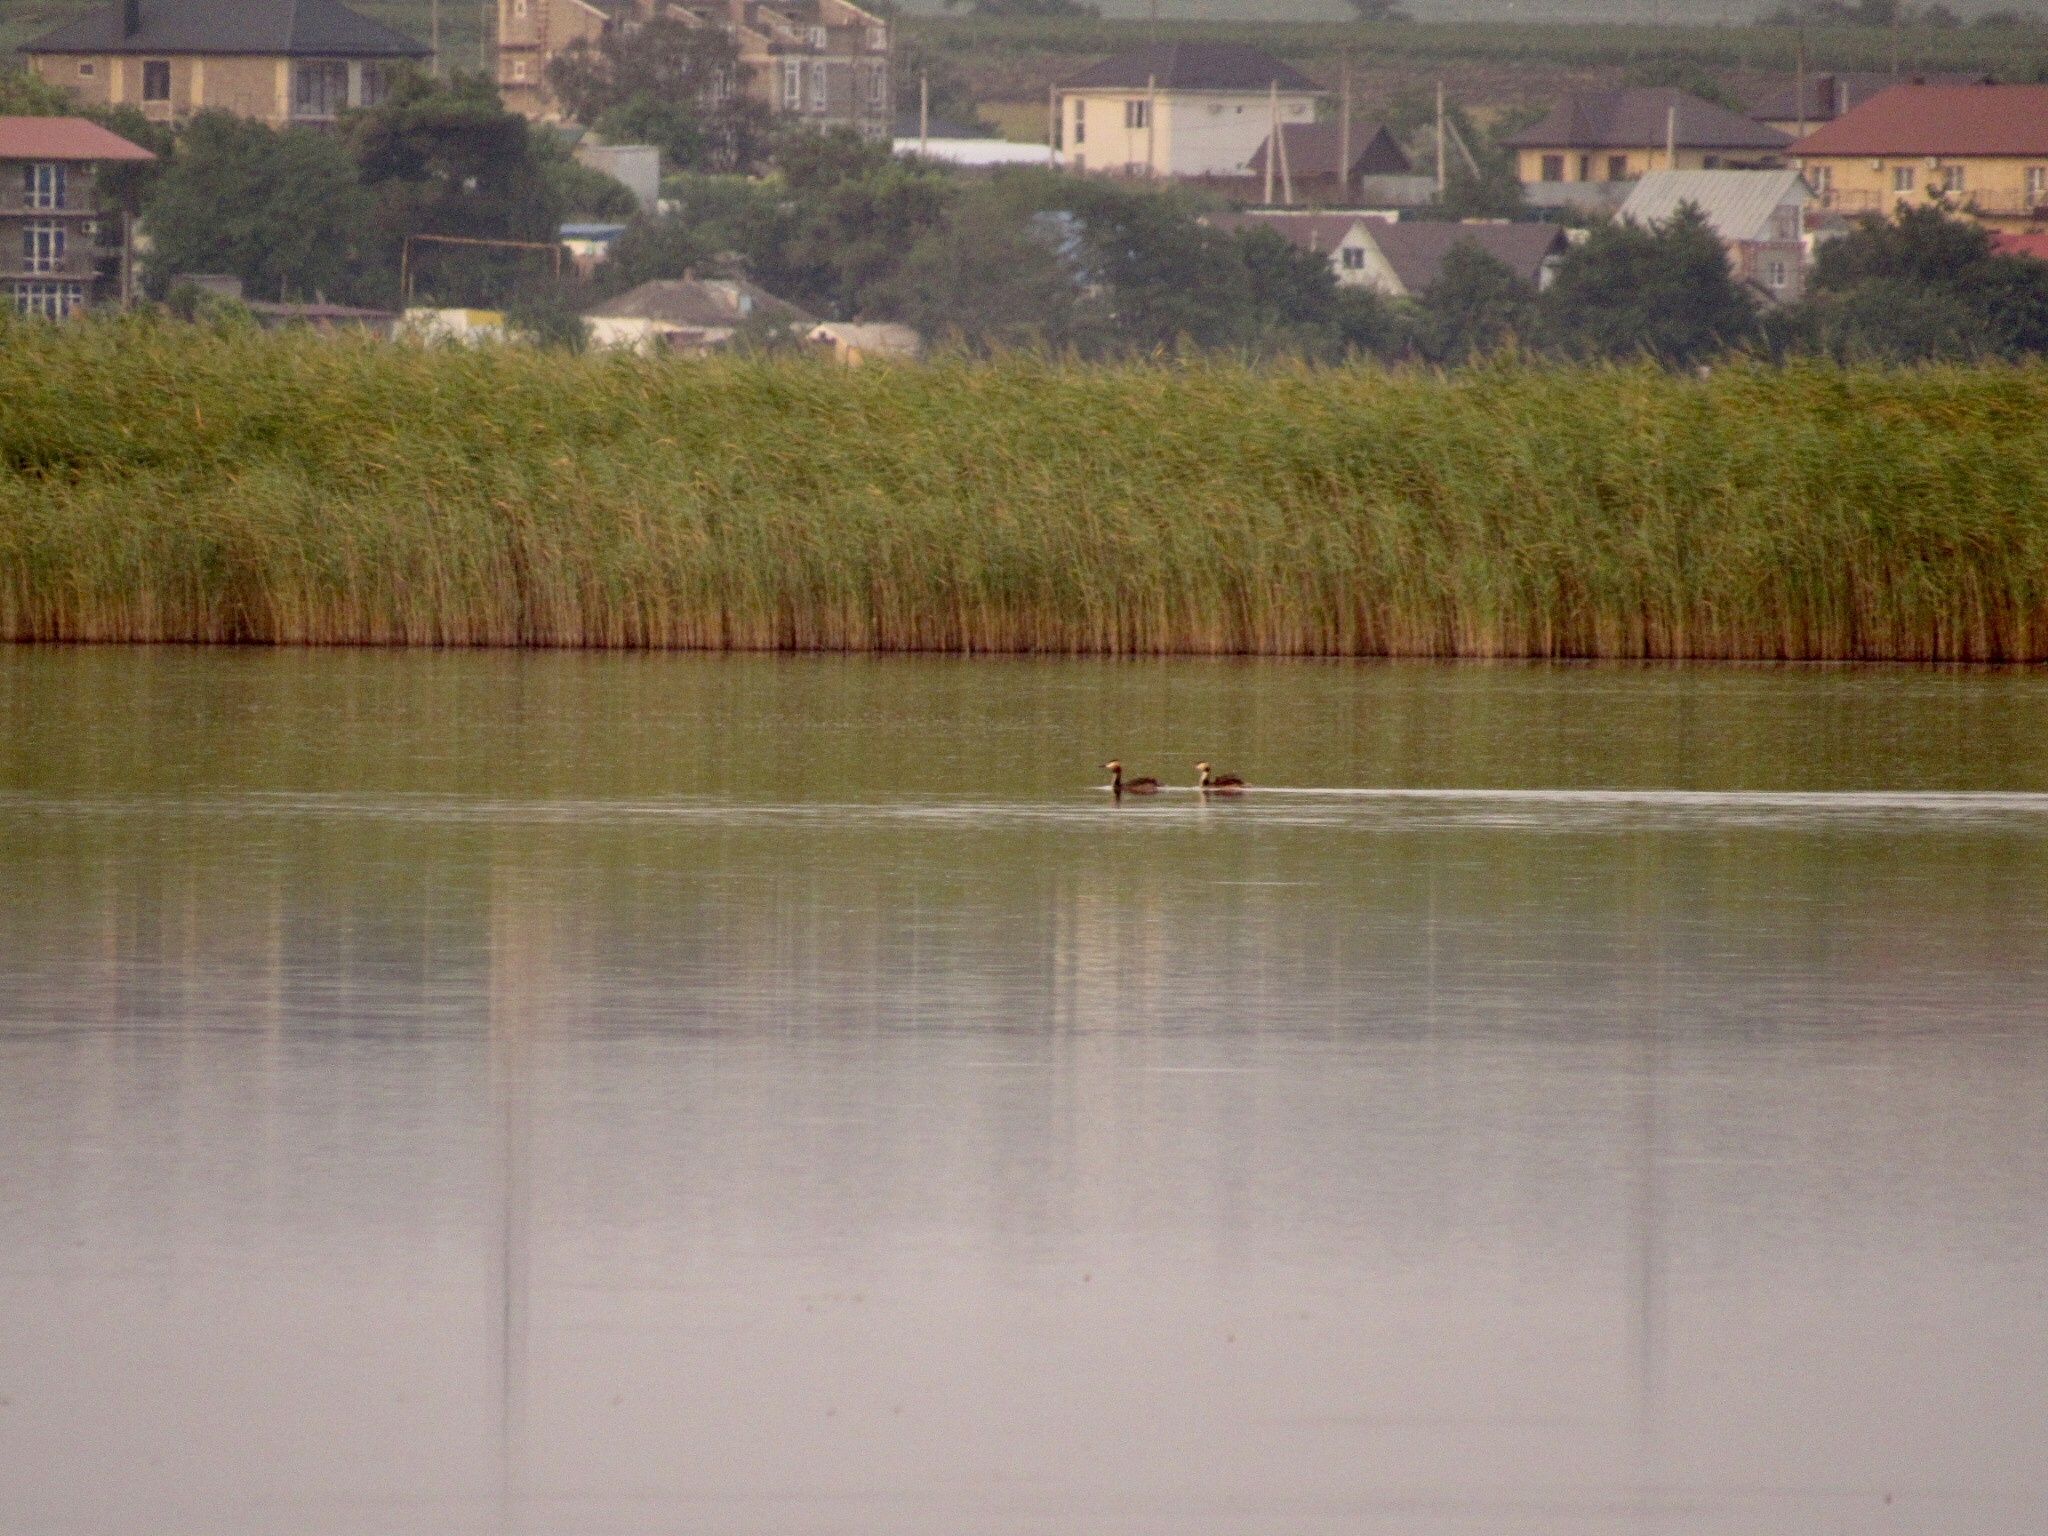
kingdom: Animalia
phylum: Chordata
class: Aves
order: Podicipediformes
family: Podicipedidae
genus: Podiceps
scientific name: Podiceps cristatus
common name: Great crested grebe
